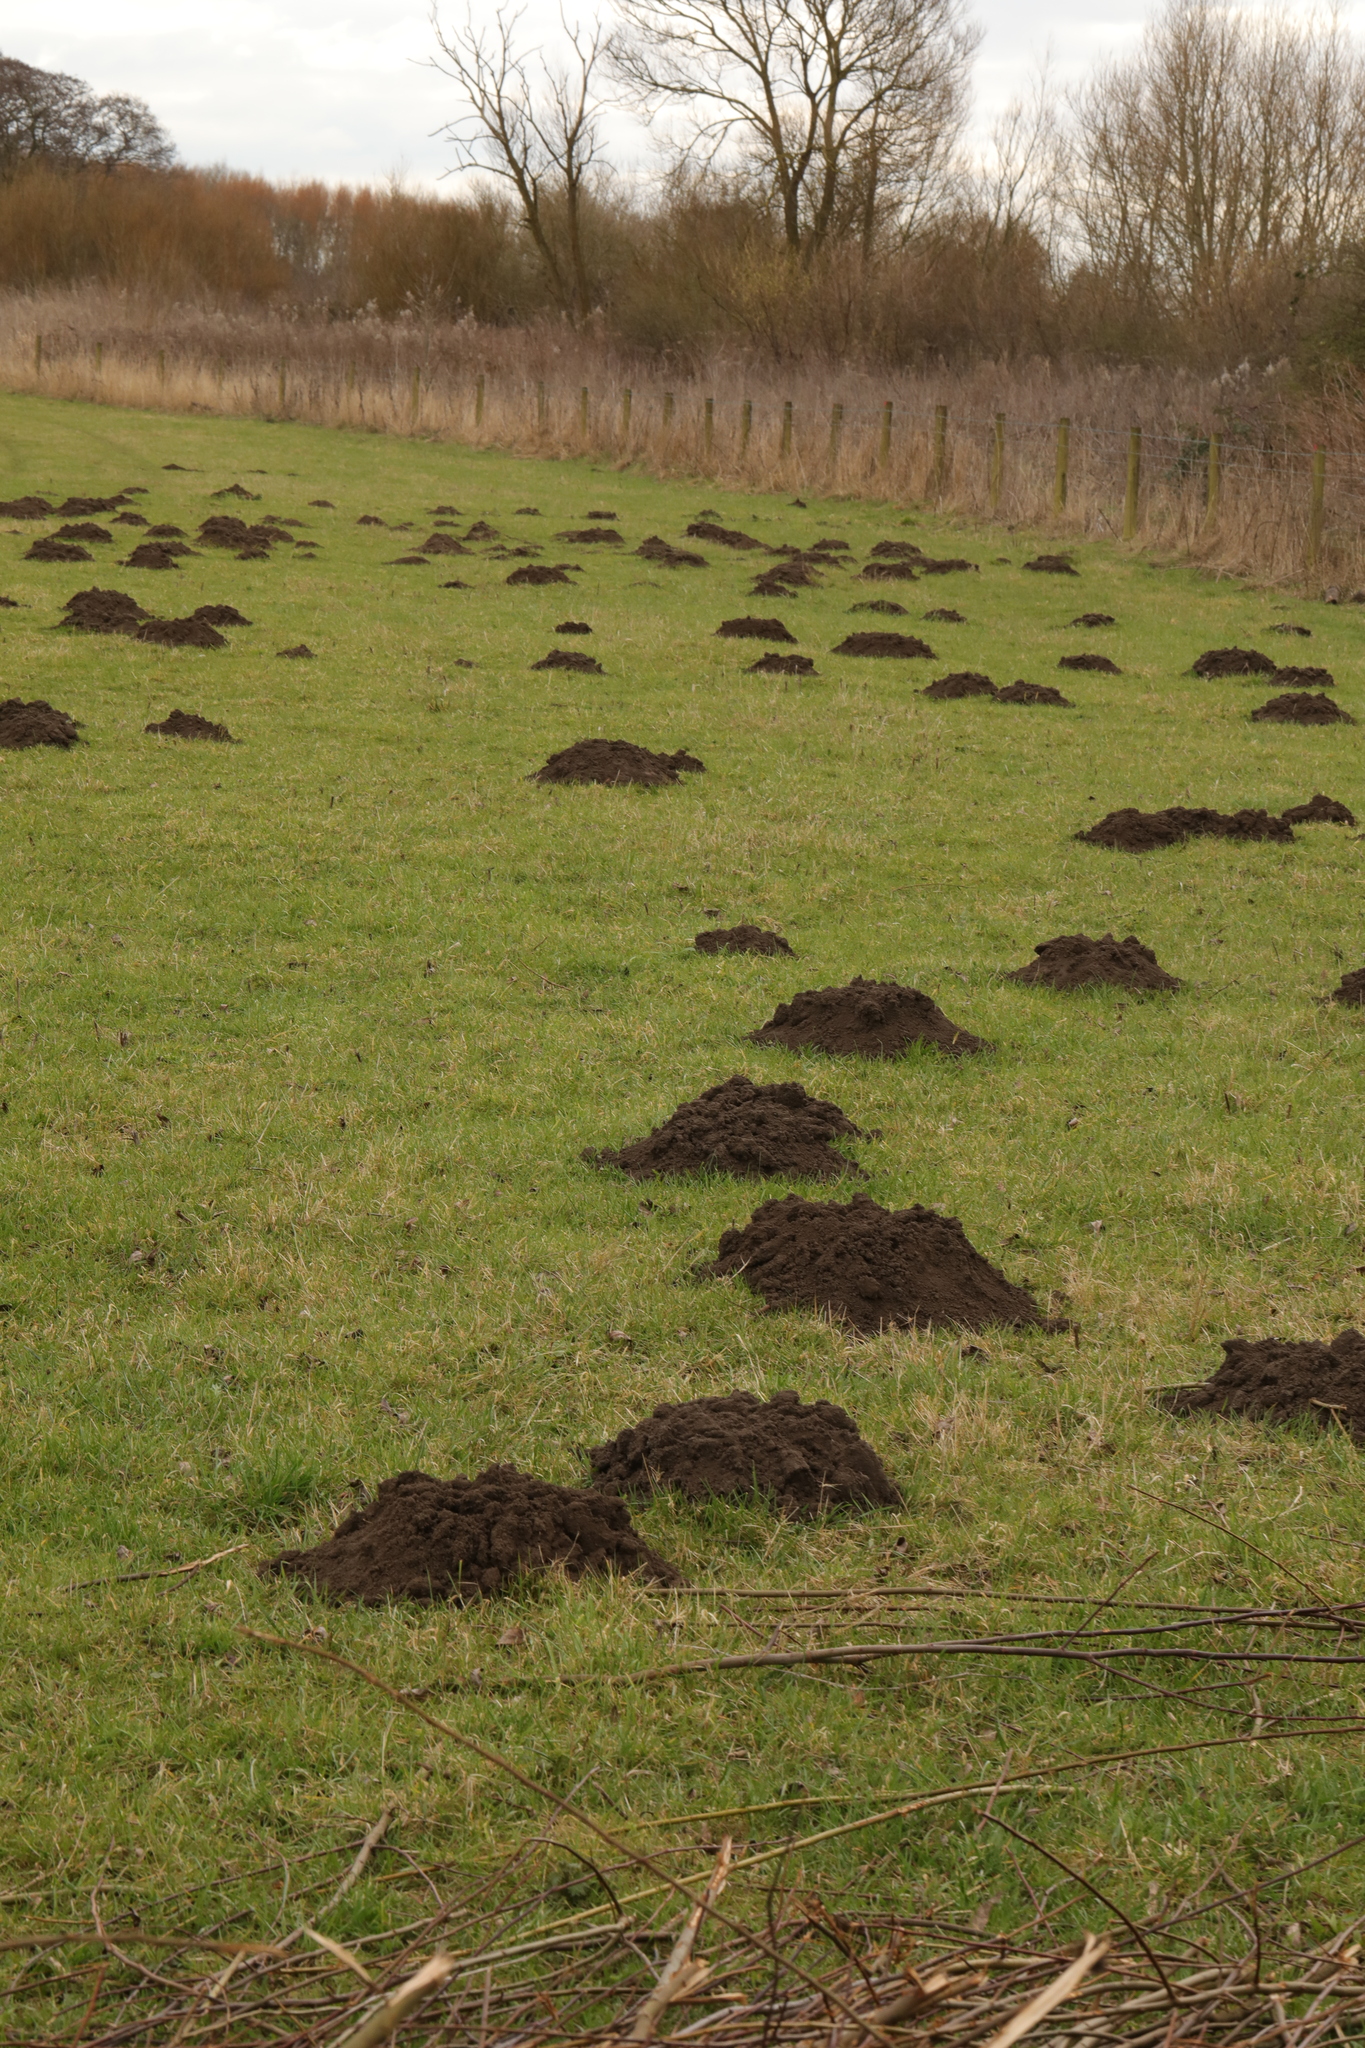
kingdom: Animalia
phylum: Chordata
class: Mammalia
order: Soricomorpha
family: Talpidae
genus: Talpa
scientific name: Talpa europaea
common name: European mole
